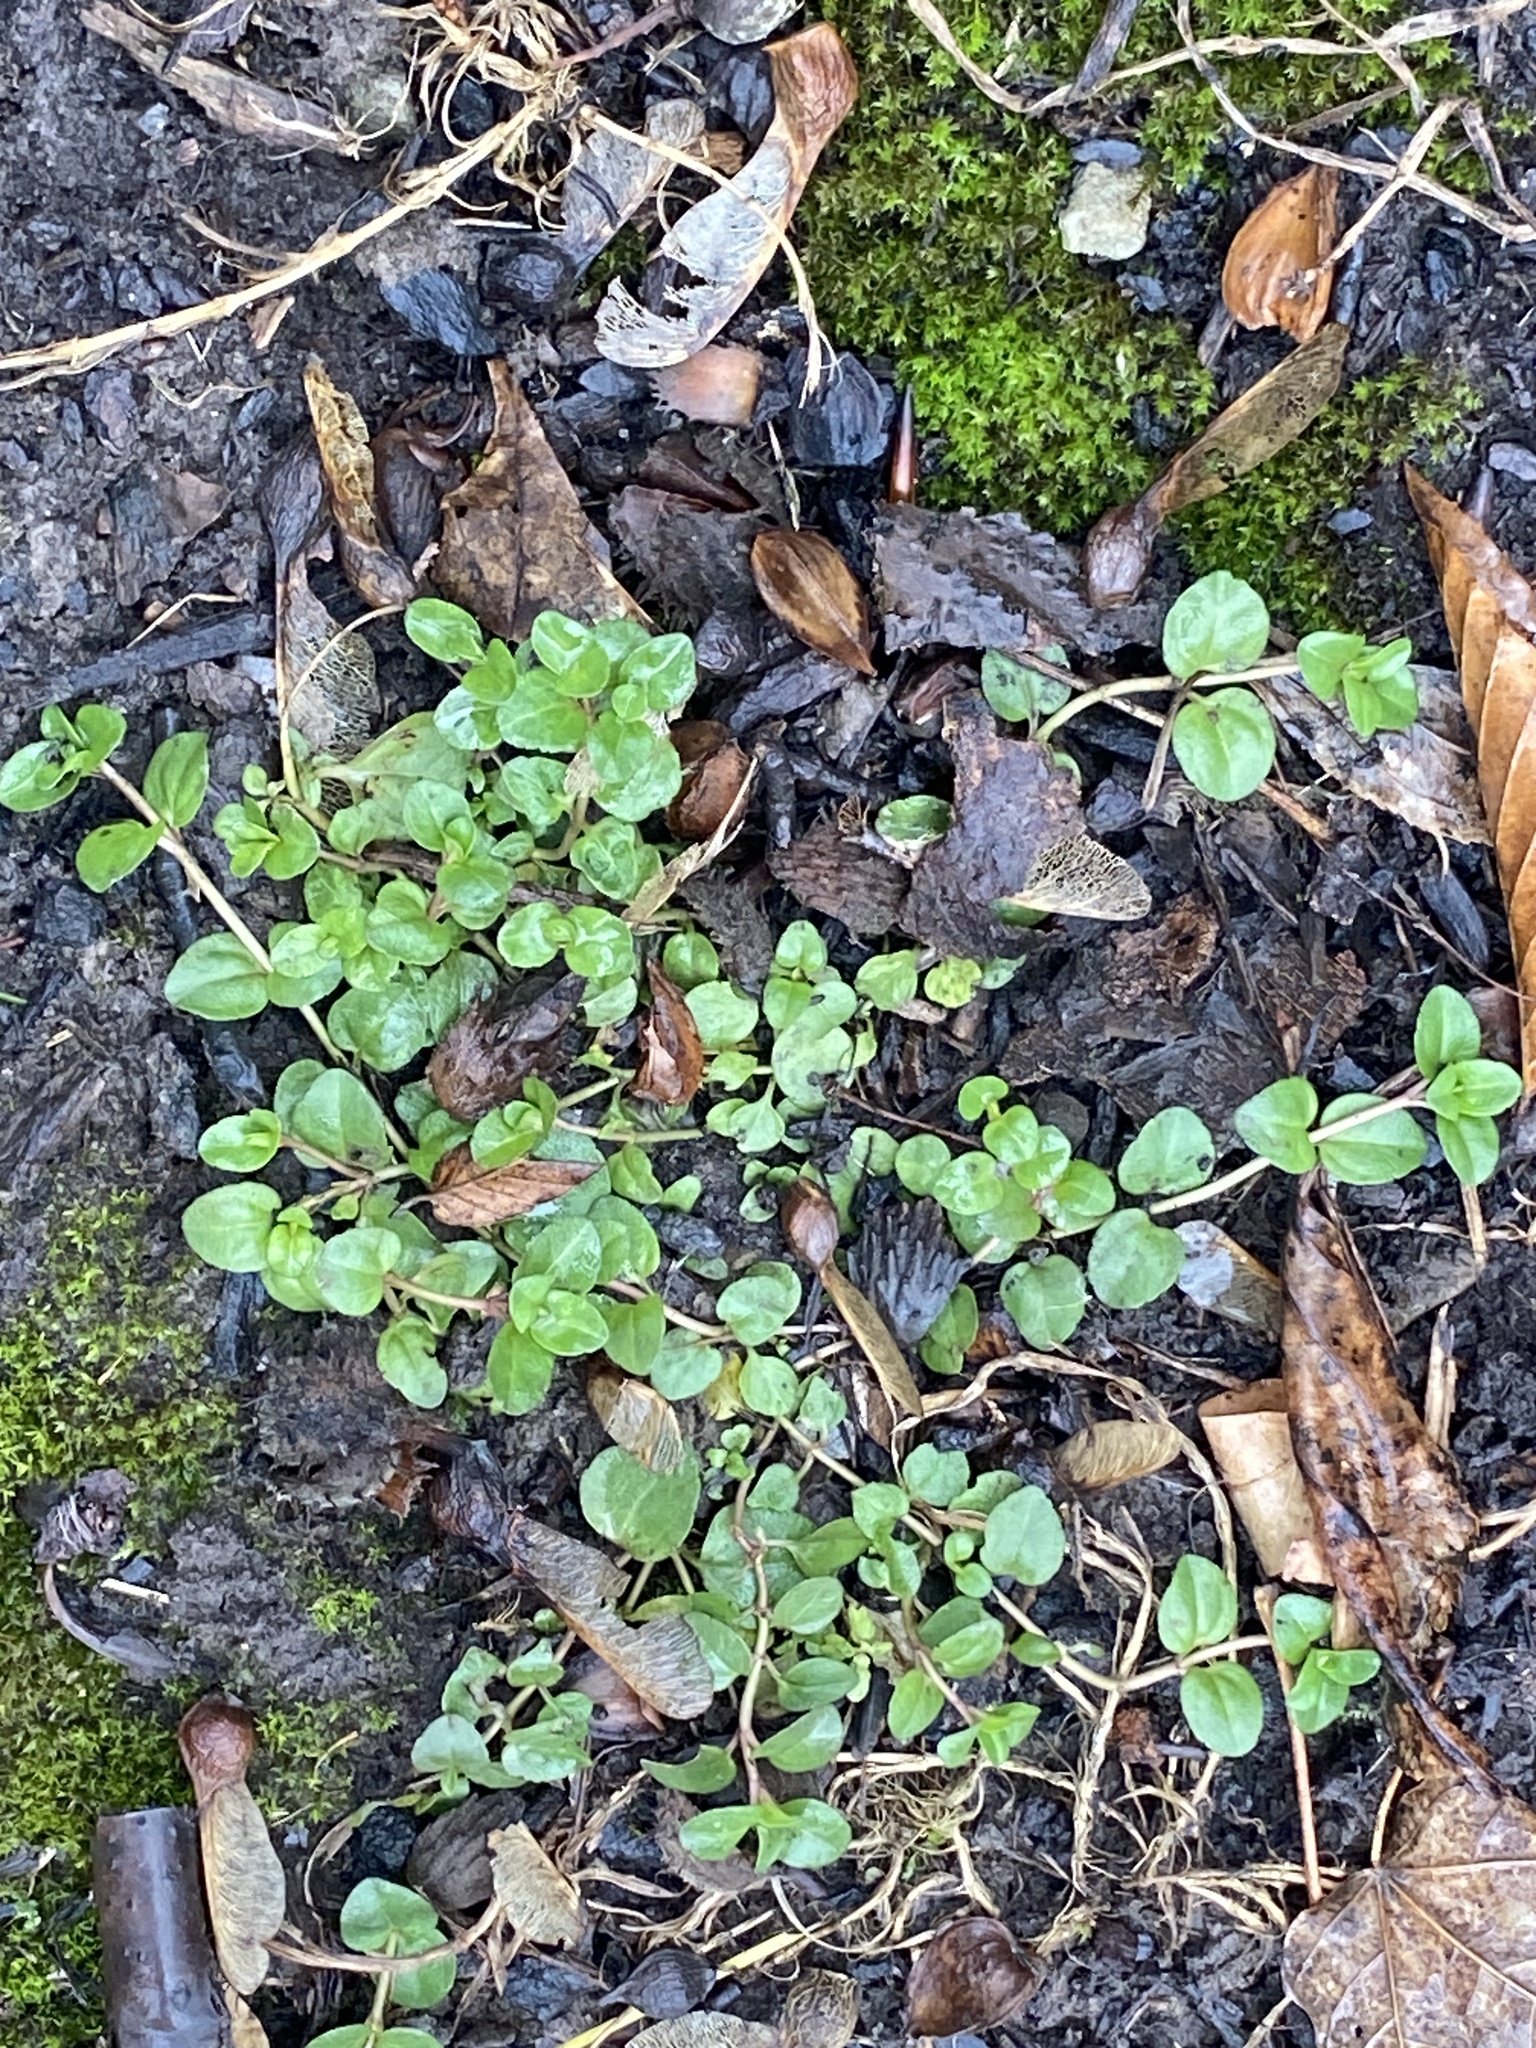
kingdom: Plantae
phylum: Tracheophyta
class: Magnoliopsida
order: Lamiales
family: Plantaginaceae
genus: Veronica
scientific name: Veronica serpyllifolia
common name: Thyme-leaved speedwell
